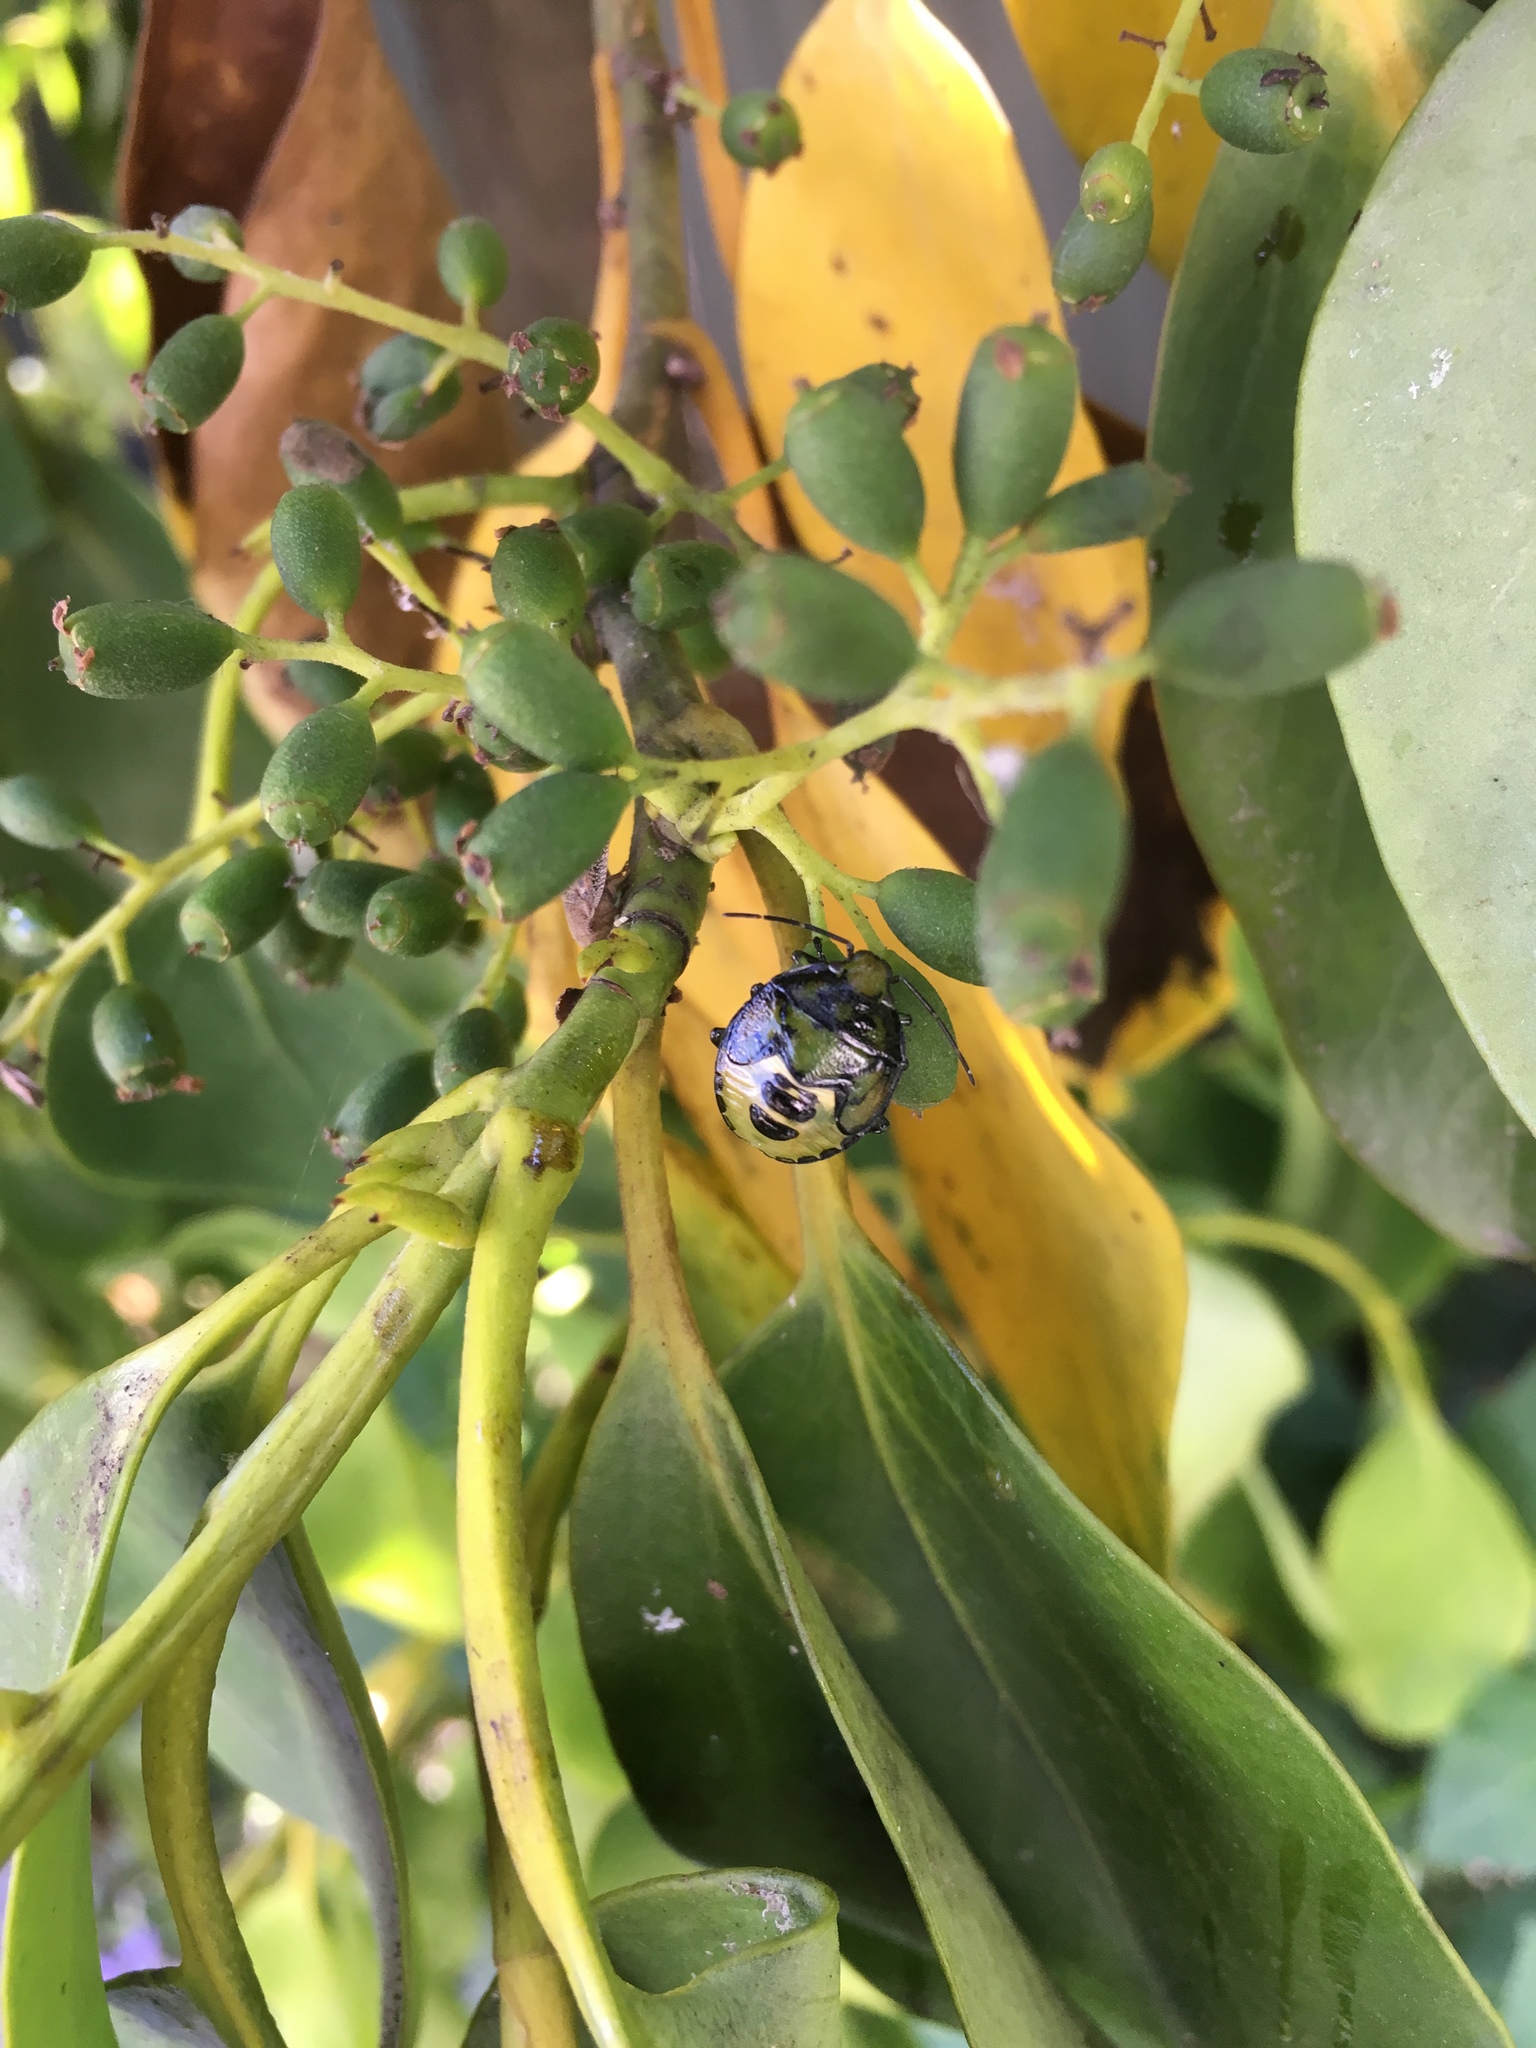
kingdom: Animalia
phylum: Arthropoda
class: Insecta
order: Hemiptera
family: Pentatomidae
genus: Glaucias
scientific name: Glaucias amyota
